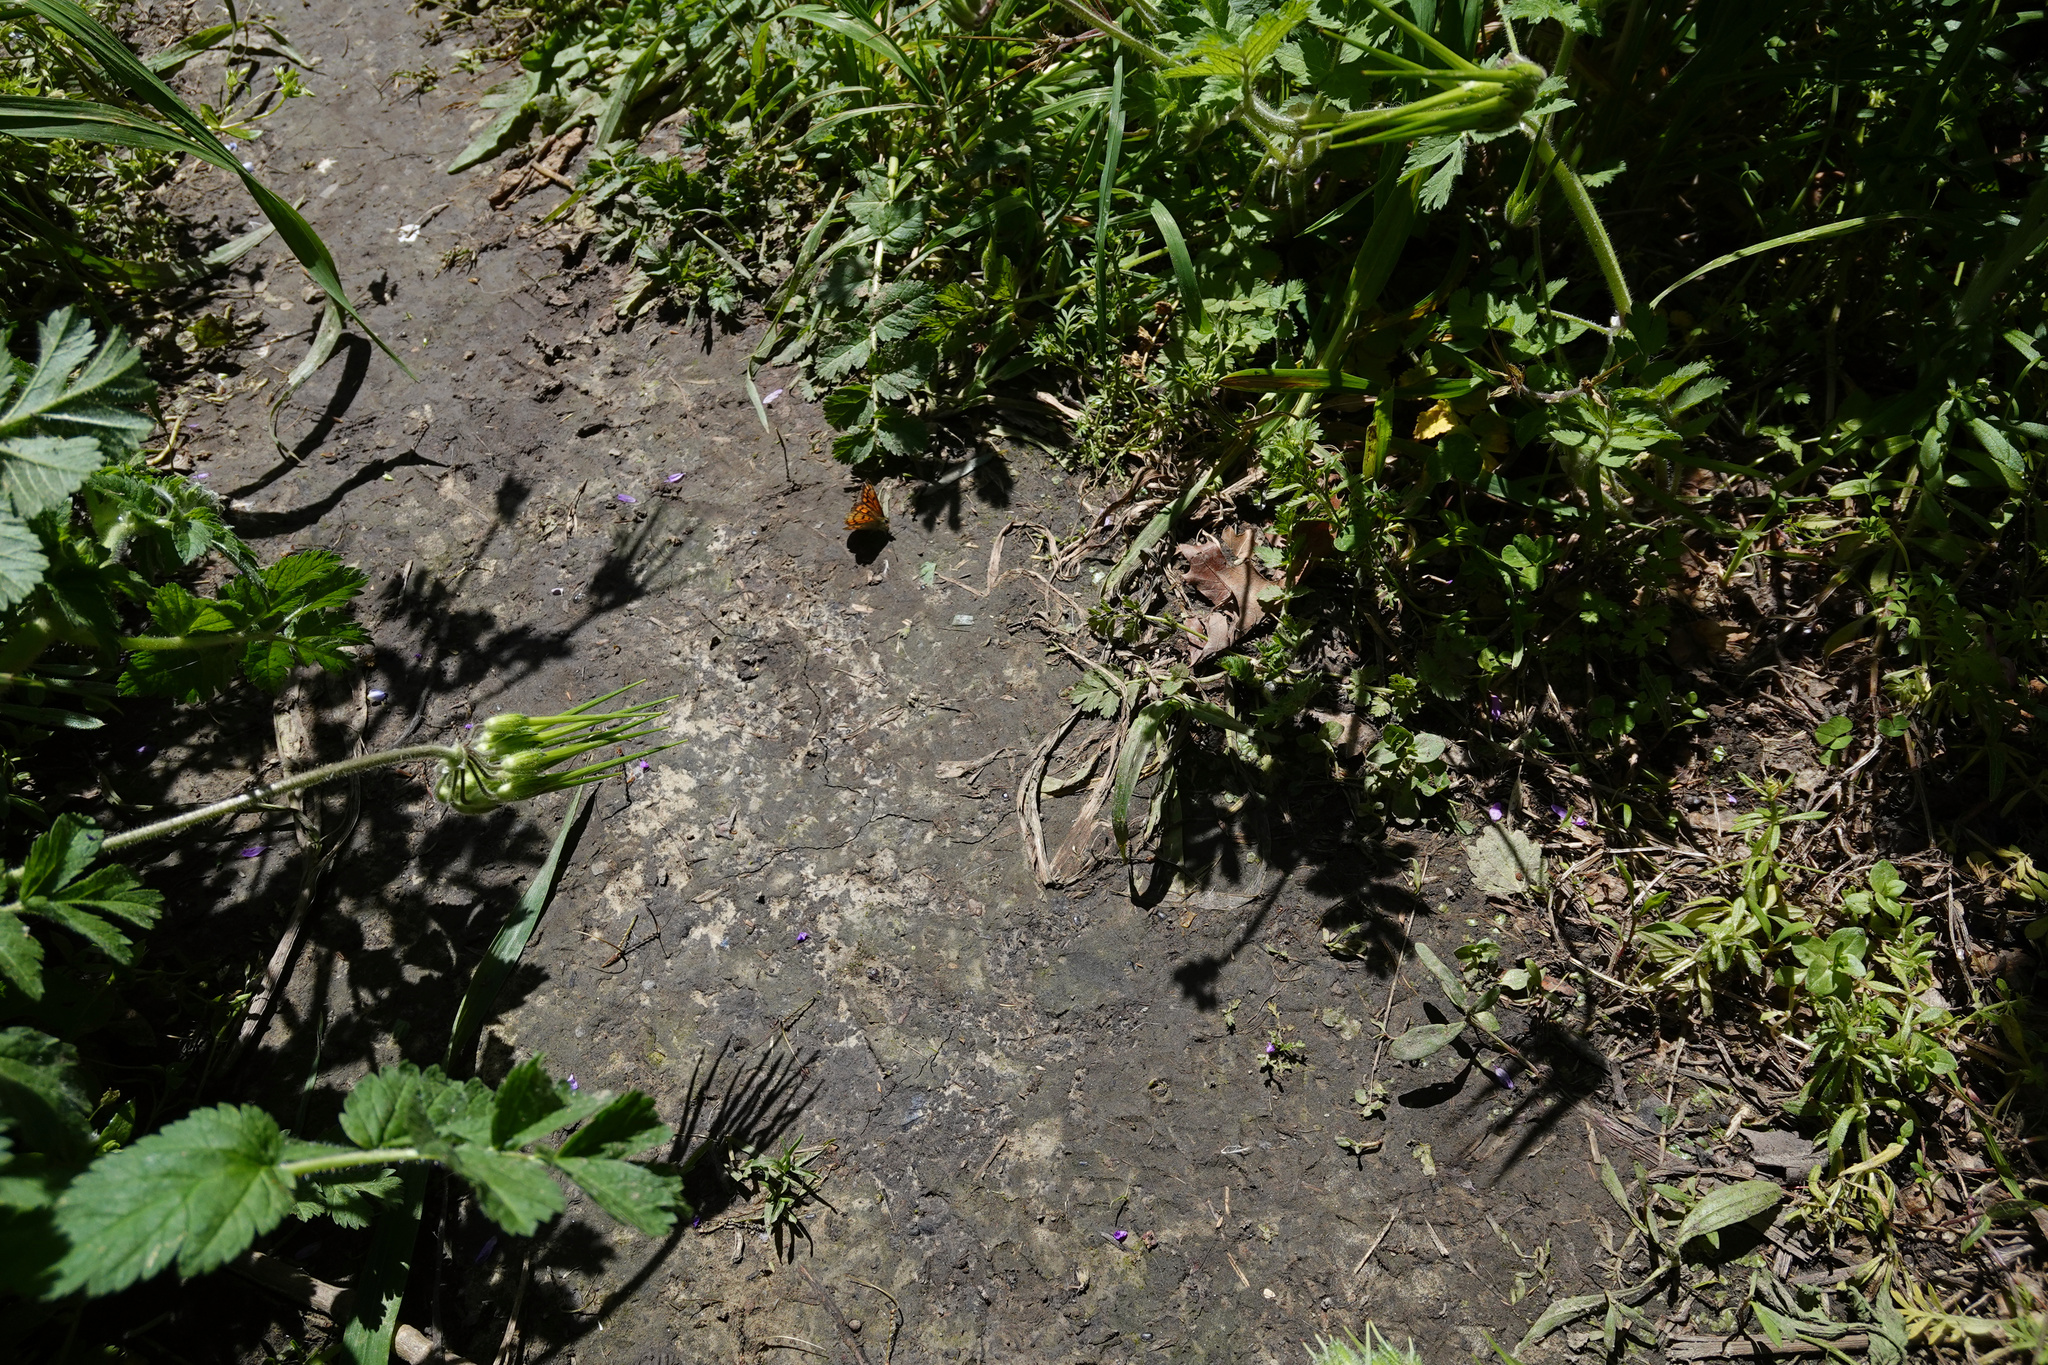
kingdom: Plantae
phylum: Tracheophyta
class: Magnoliopsida
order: Geraniales
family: Geraniaceae
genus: Erodium
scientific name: Erodium moschatum
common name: Musk stork's-bill
